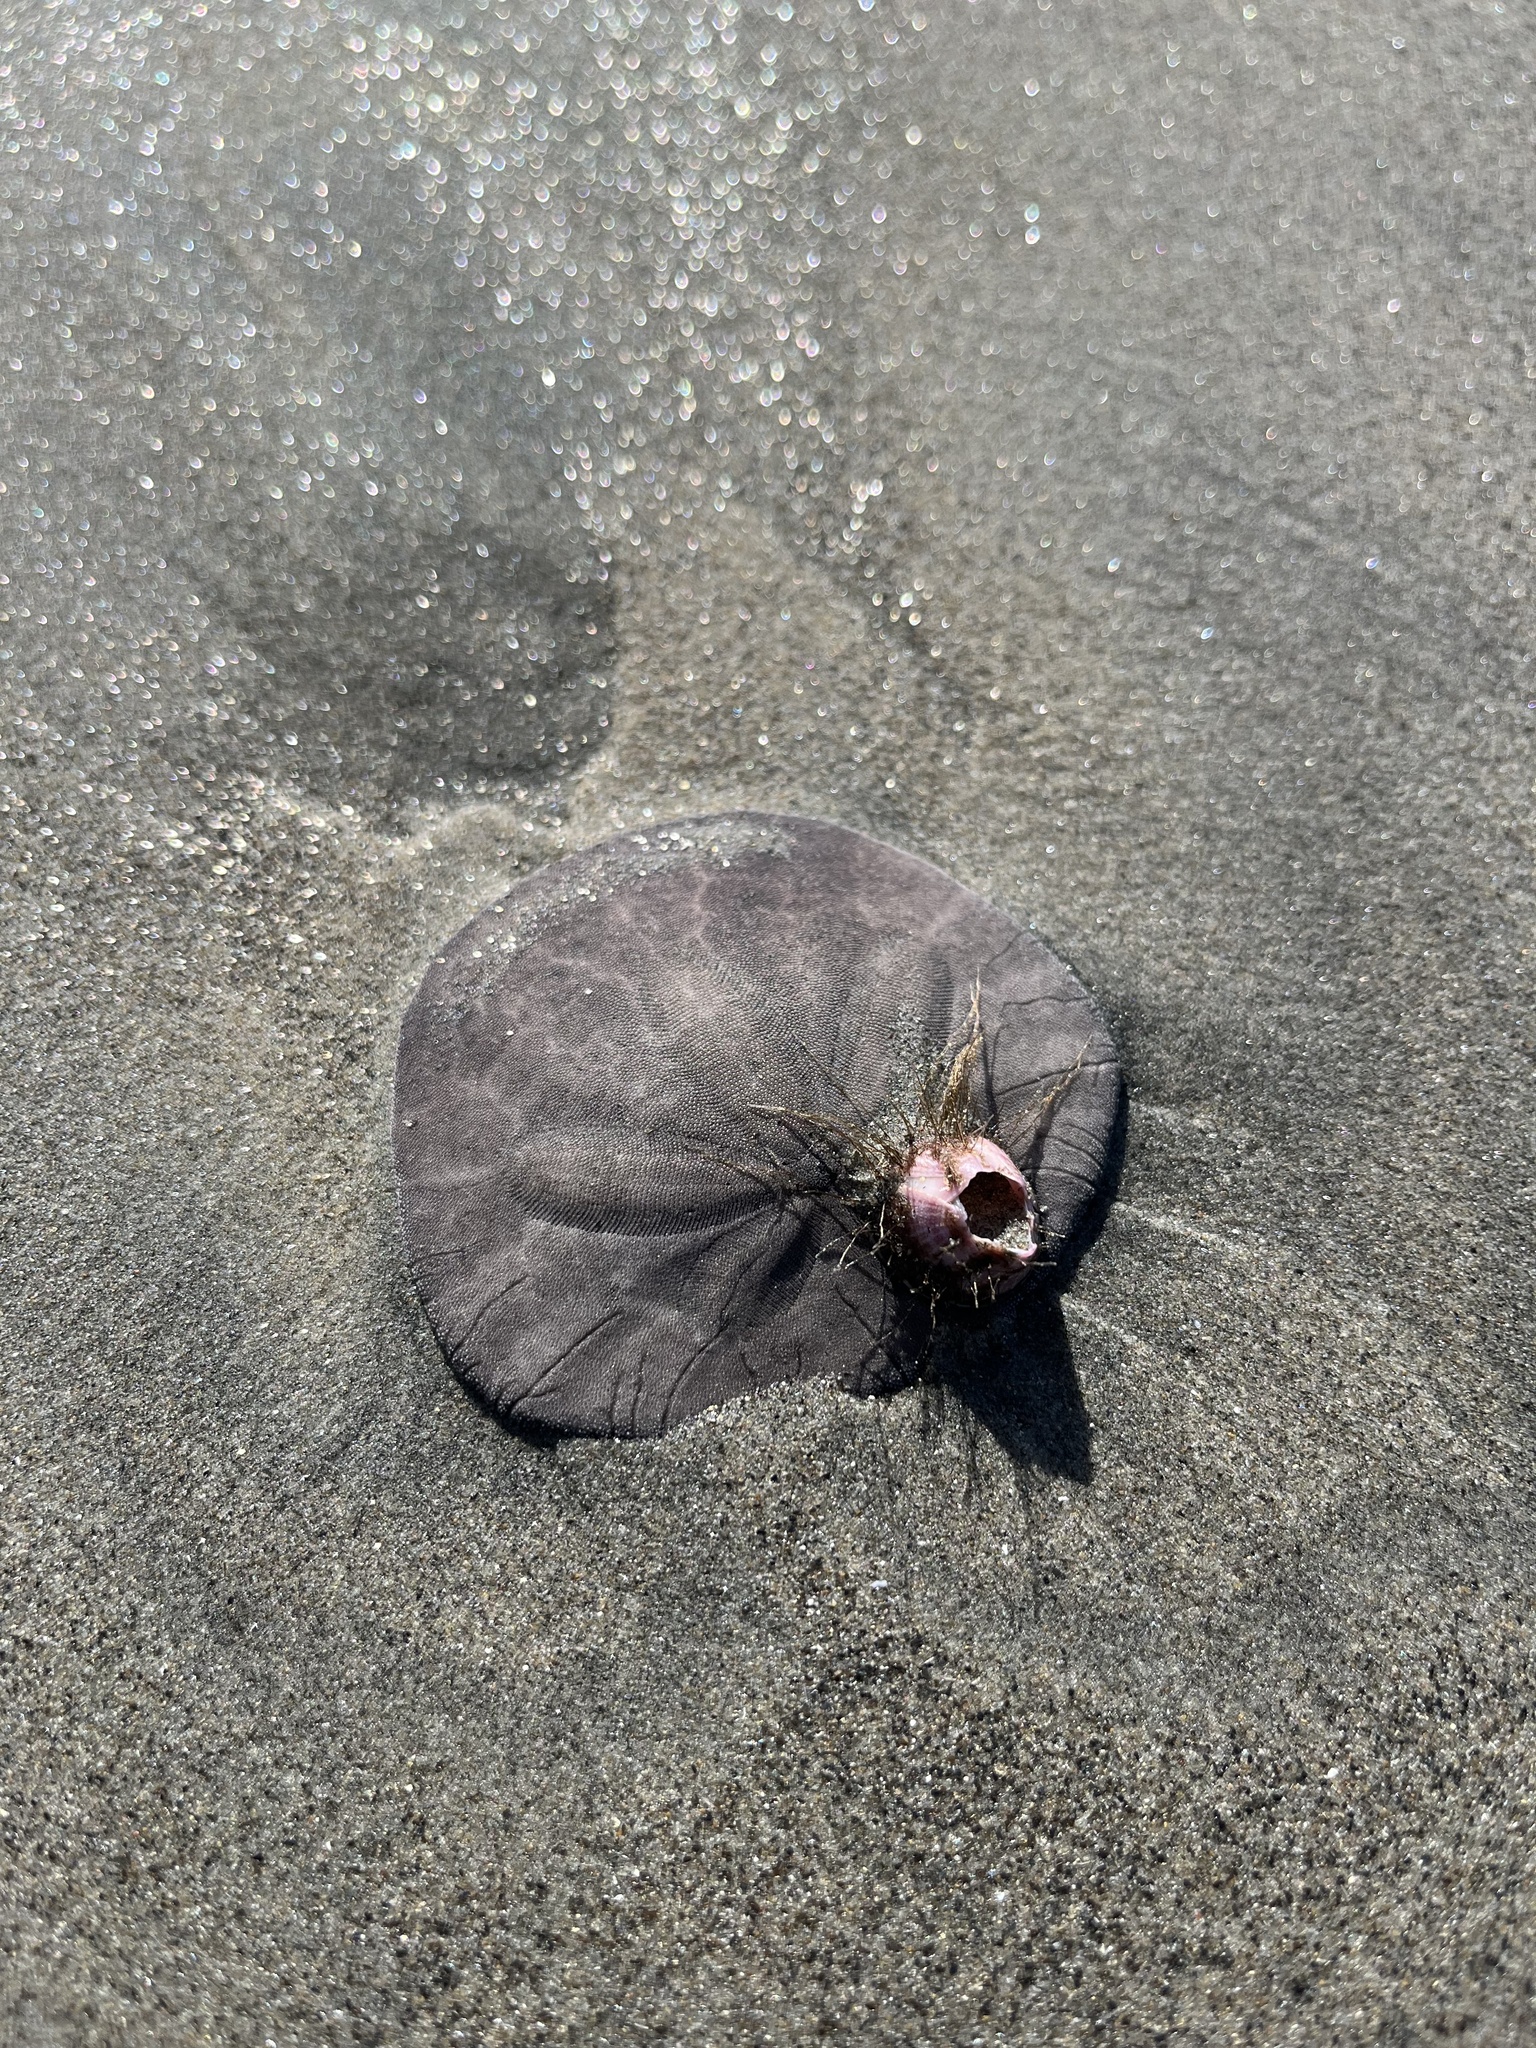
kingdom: Animalia
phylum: Echinodermata
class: Echinoidea
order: Echinolampadacea
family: Dendrasteridae
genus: Dendraster
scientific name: Dendraster excentricus
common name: Eccentric sand dollar sea urchin
